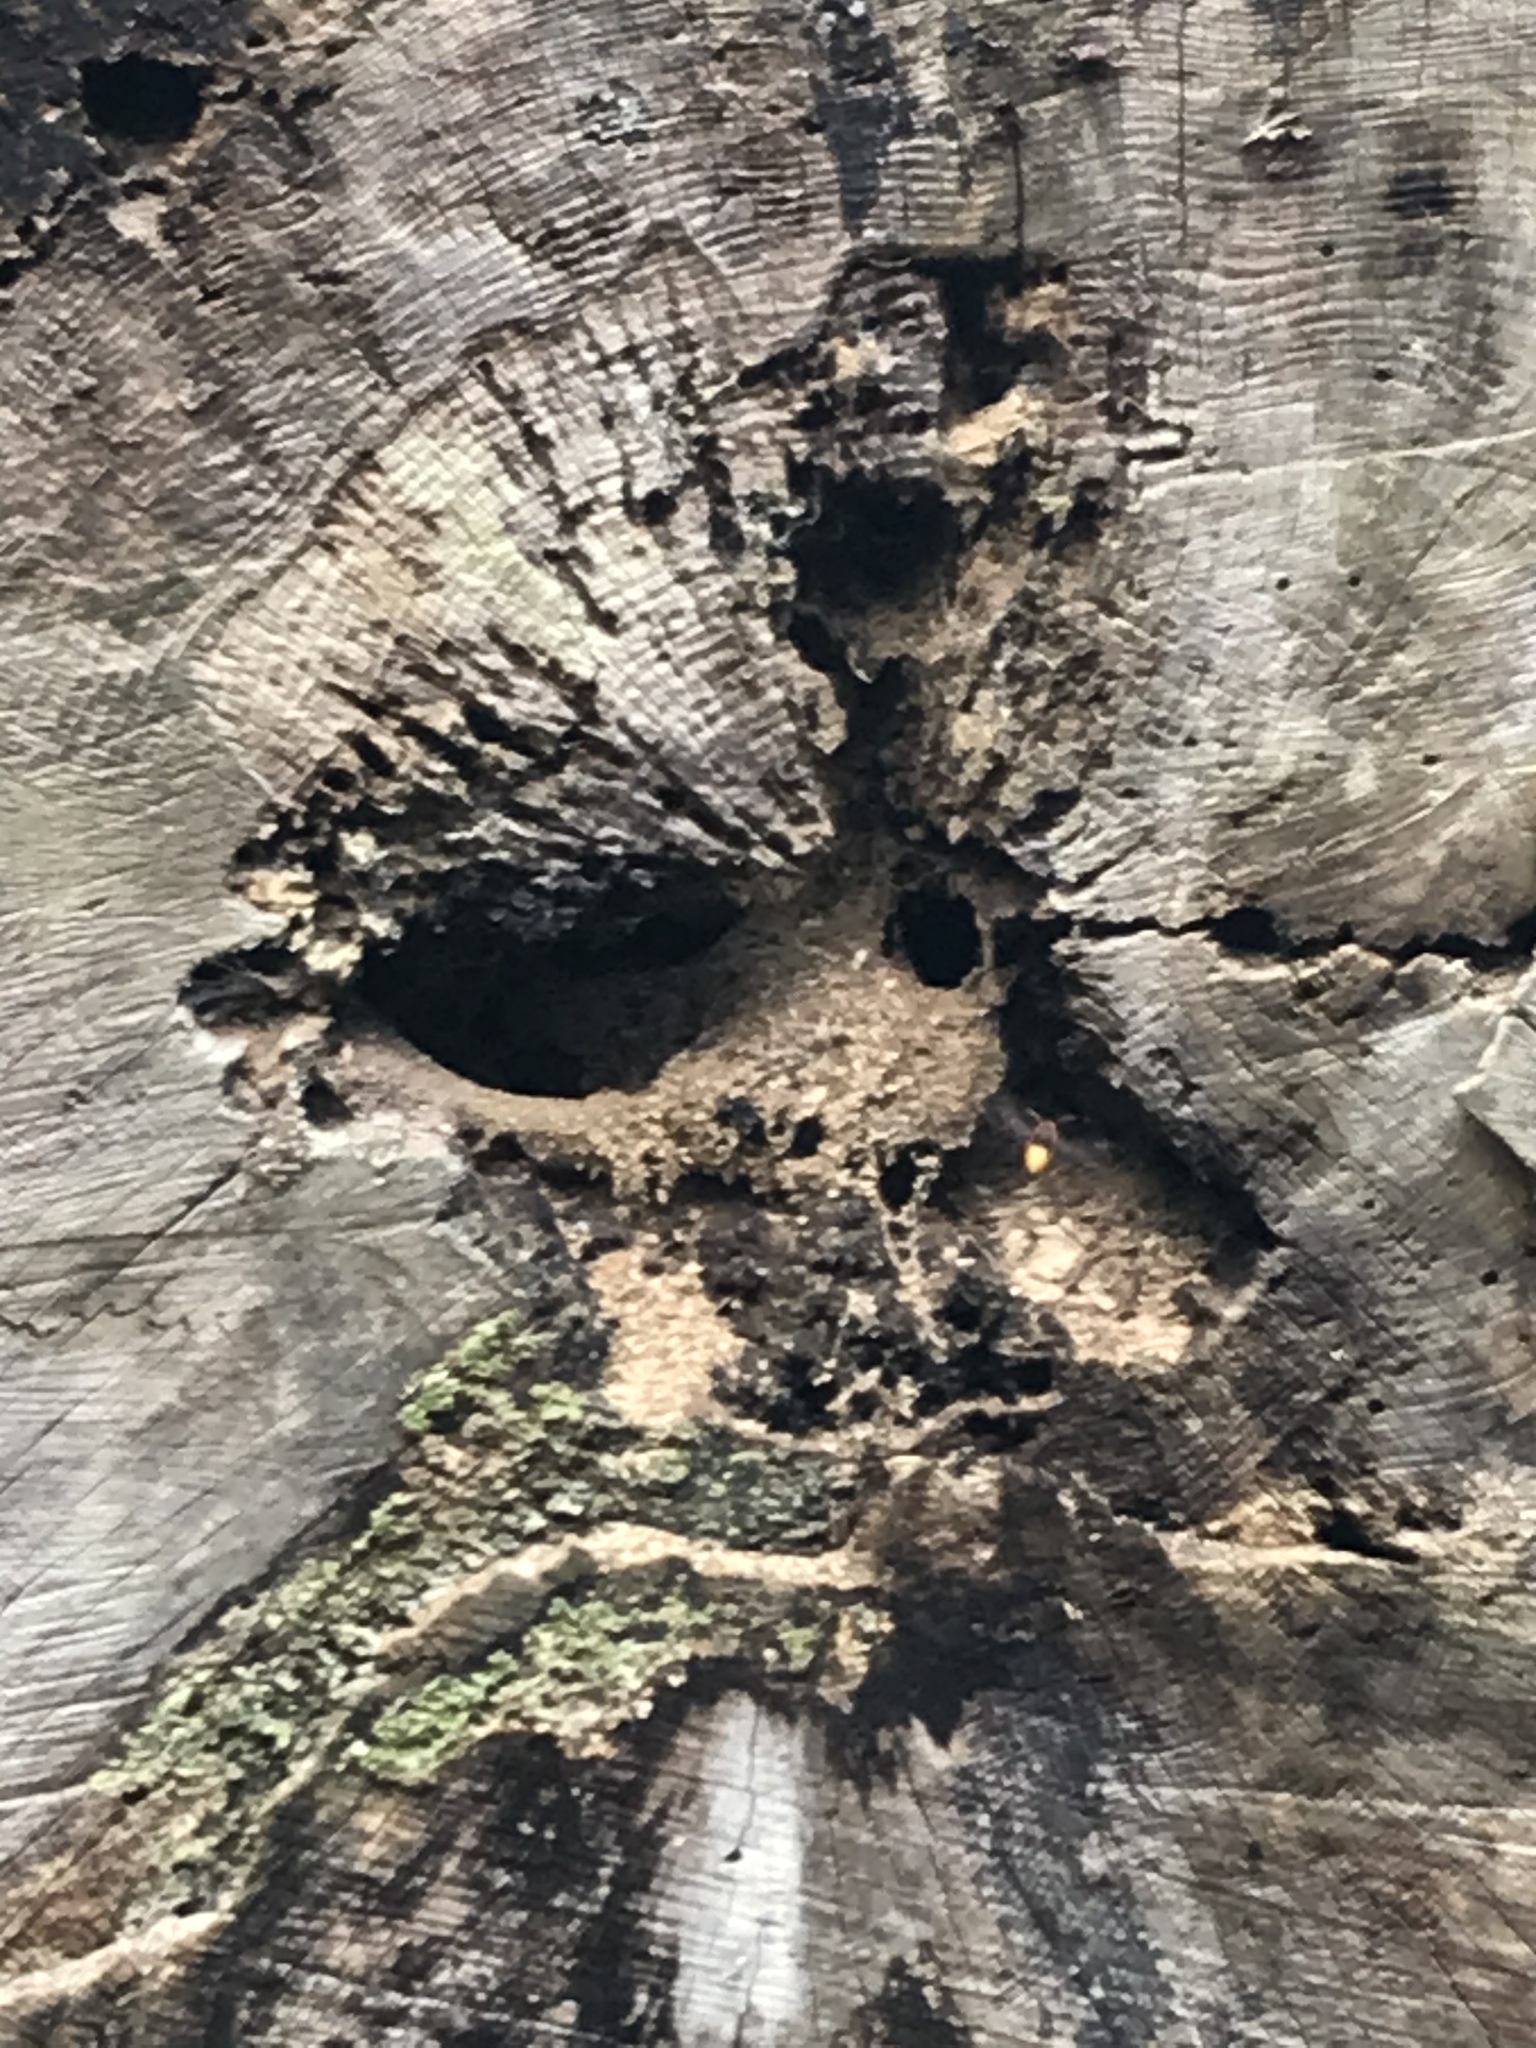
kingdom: Animalia
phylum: Arthropoda
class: Insecta
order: Hymenoptera
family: Vespidae
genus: Vespa
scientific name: Vespa crabro
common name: Hornet
